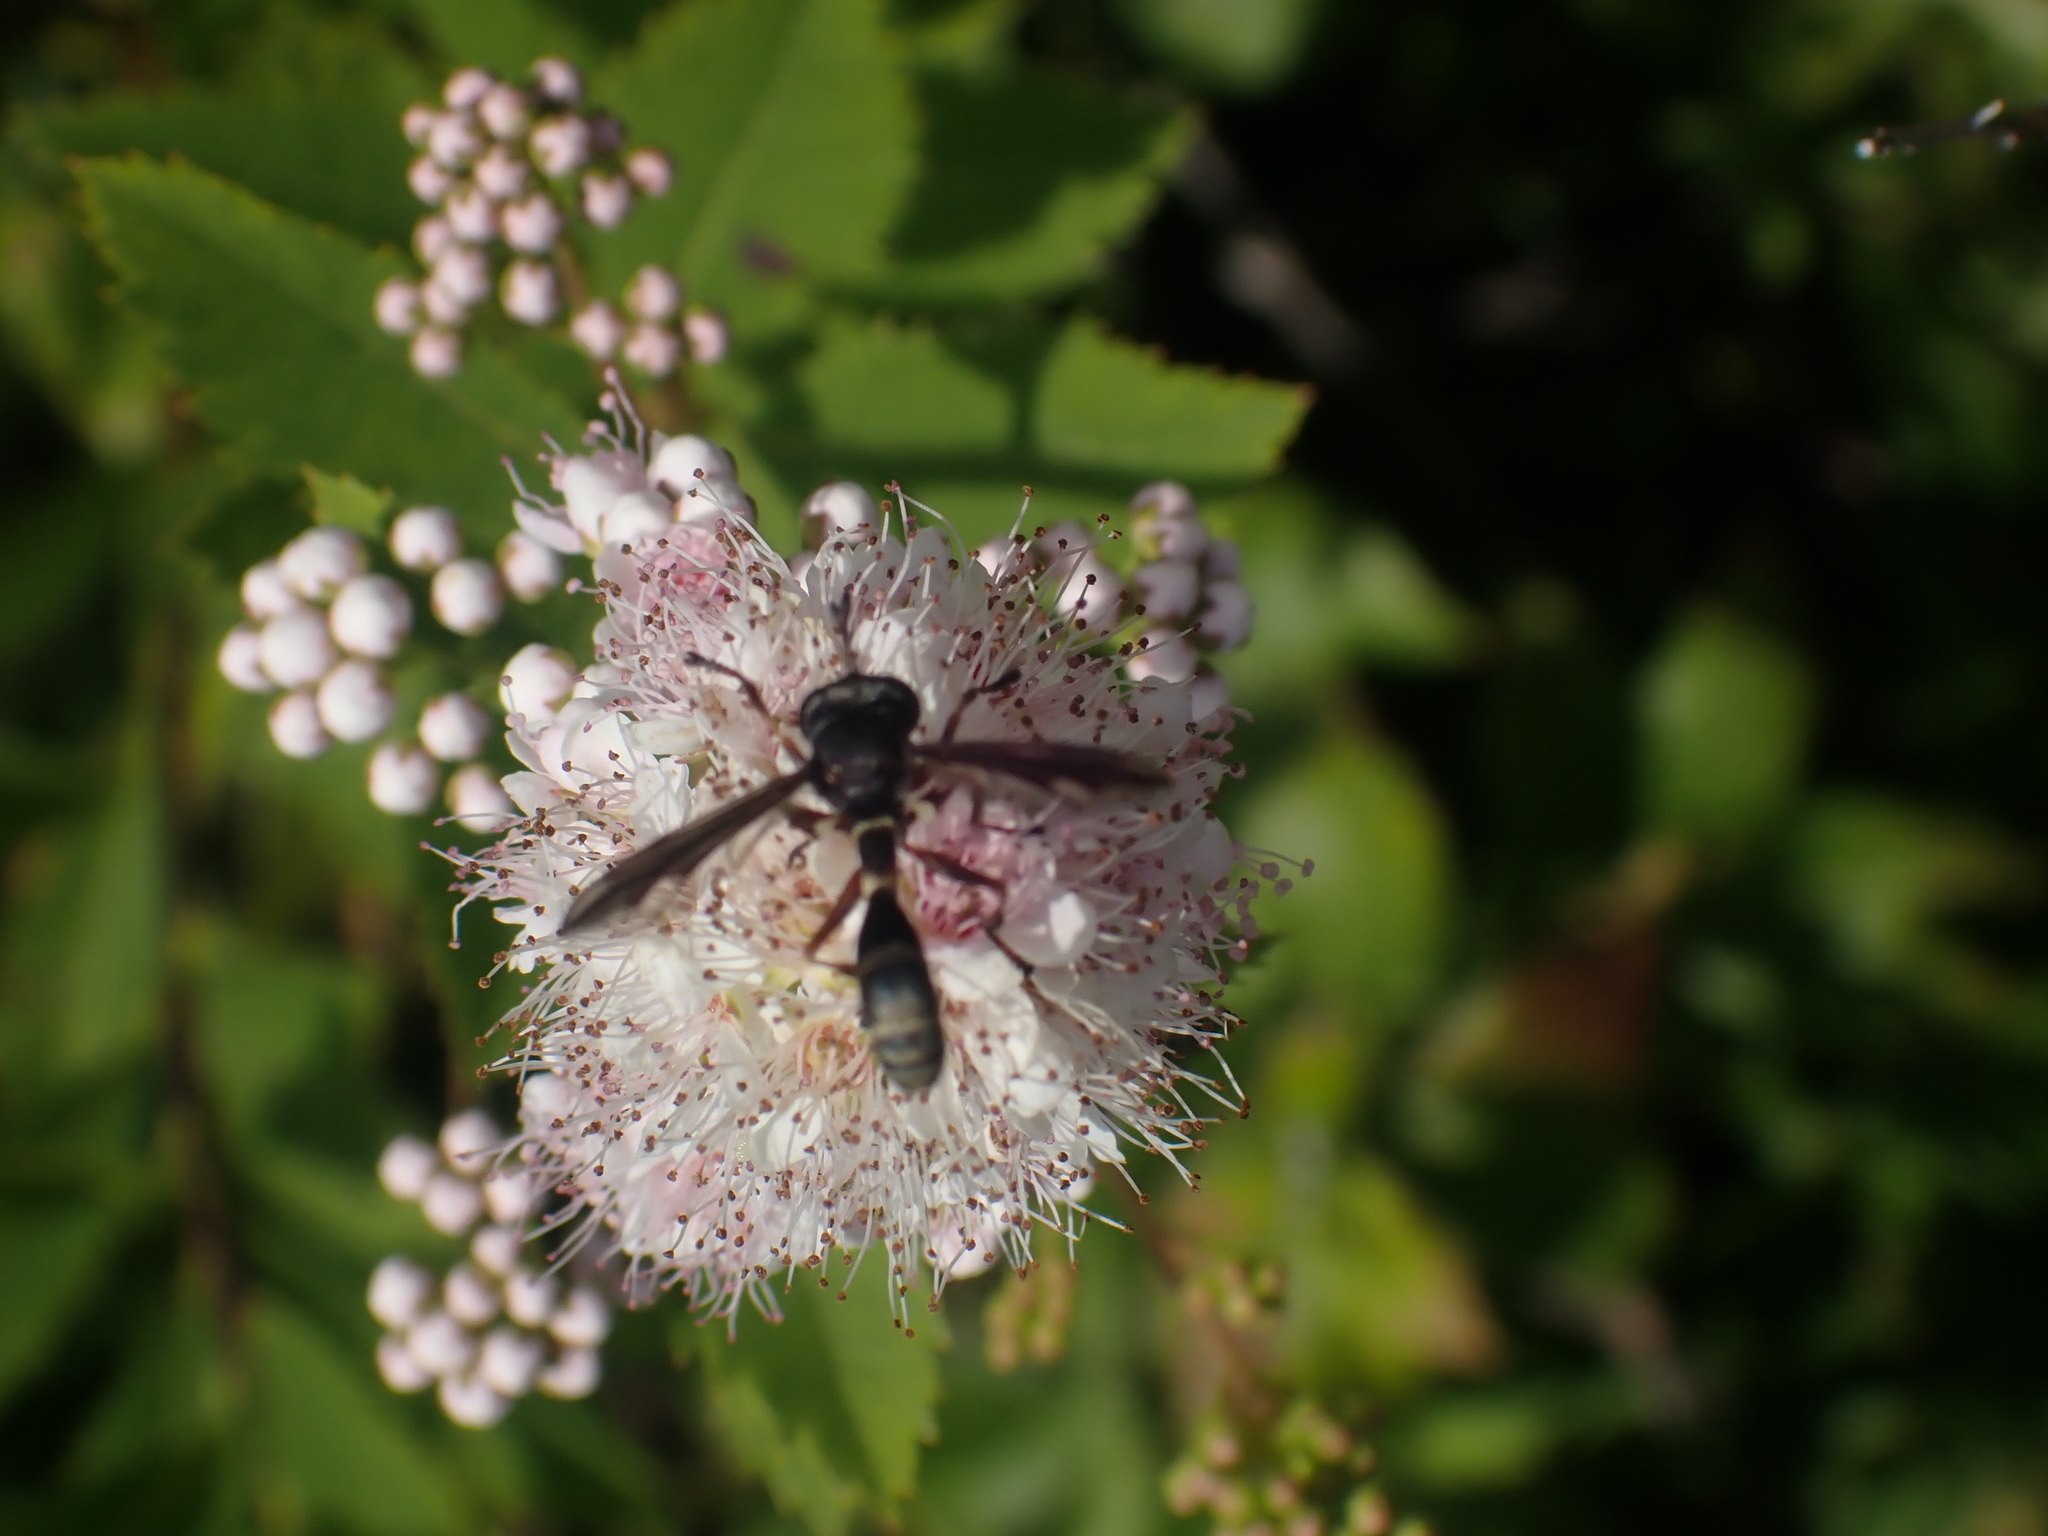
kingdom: Animalia
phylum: Arthropoda
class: Insecta
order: Diptera
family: Conopidae
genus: Physocephala
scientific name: Physocephala furcillata
